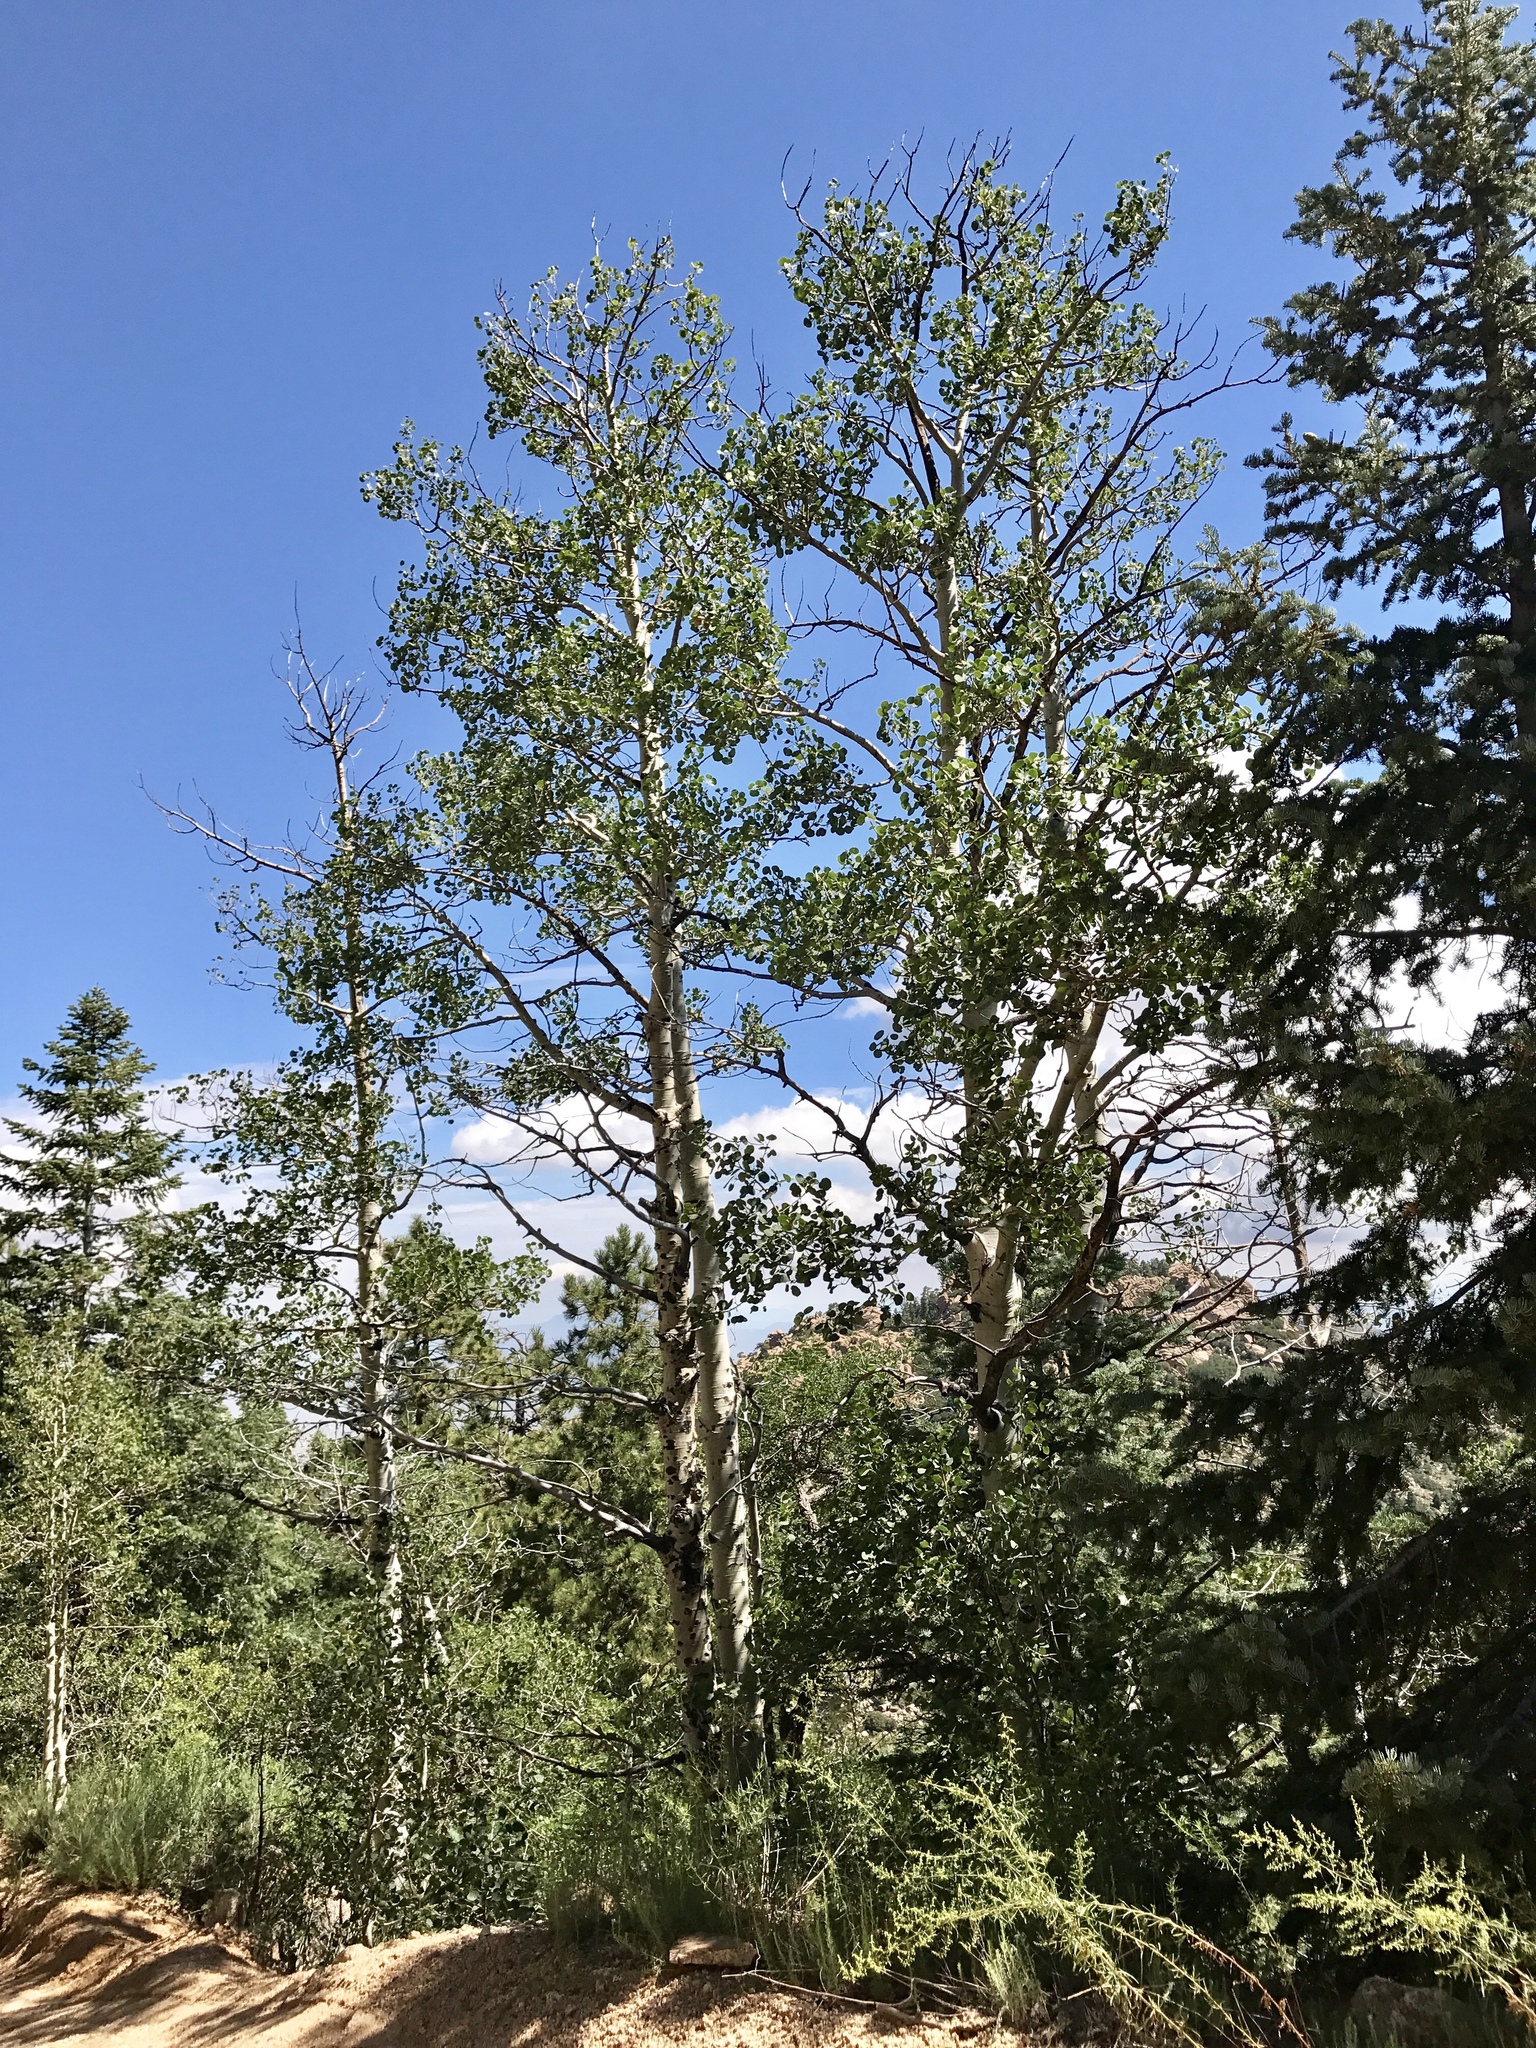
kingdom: Plantae
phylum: Tracheophyta
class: Magnoliopsida
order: Malpighiales
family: Salicaceae
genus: Populus
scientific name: Populus tremuloides
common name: Quaking aspen
